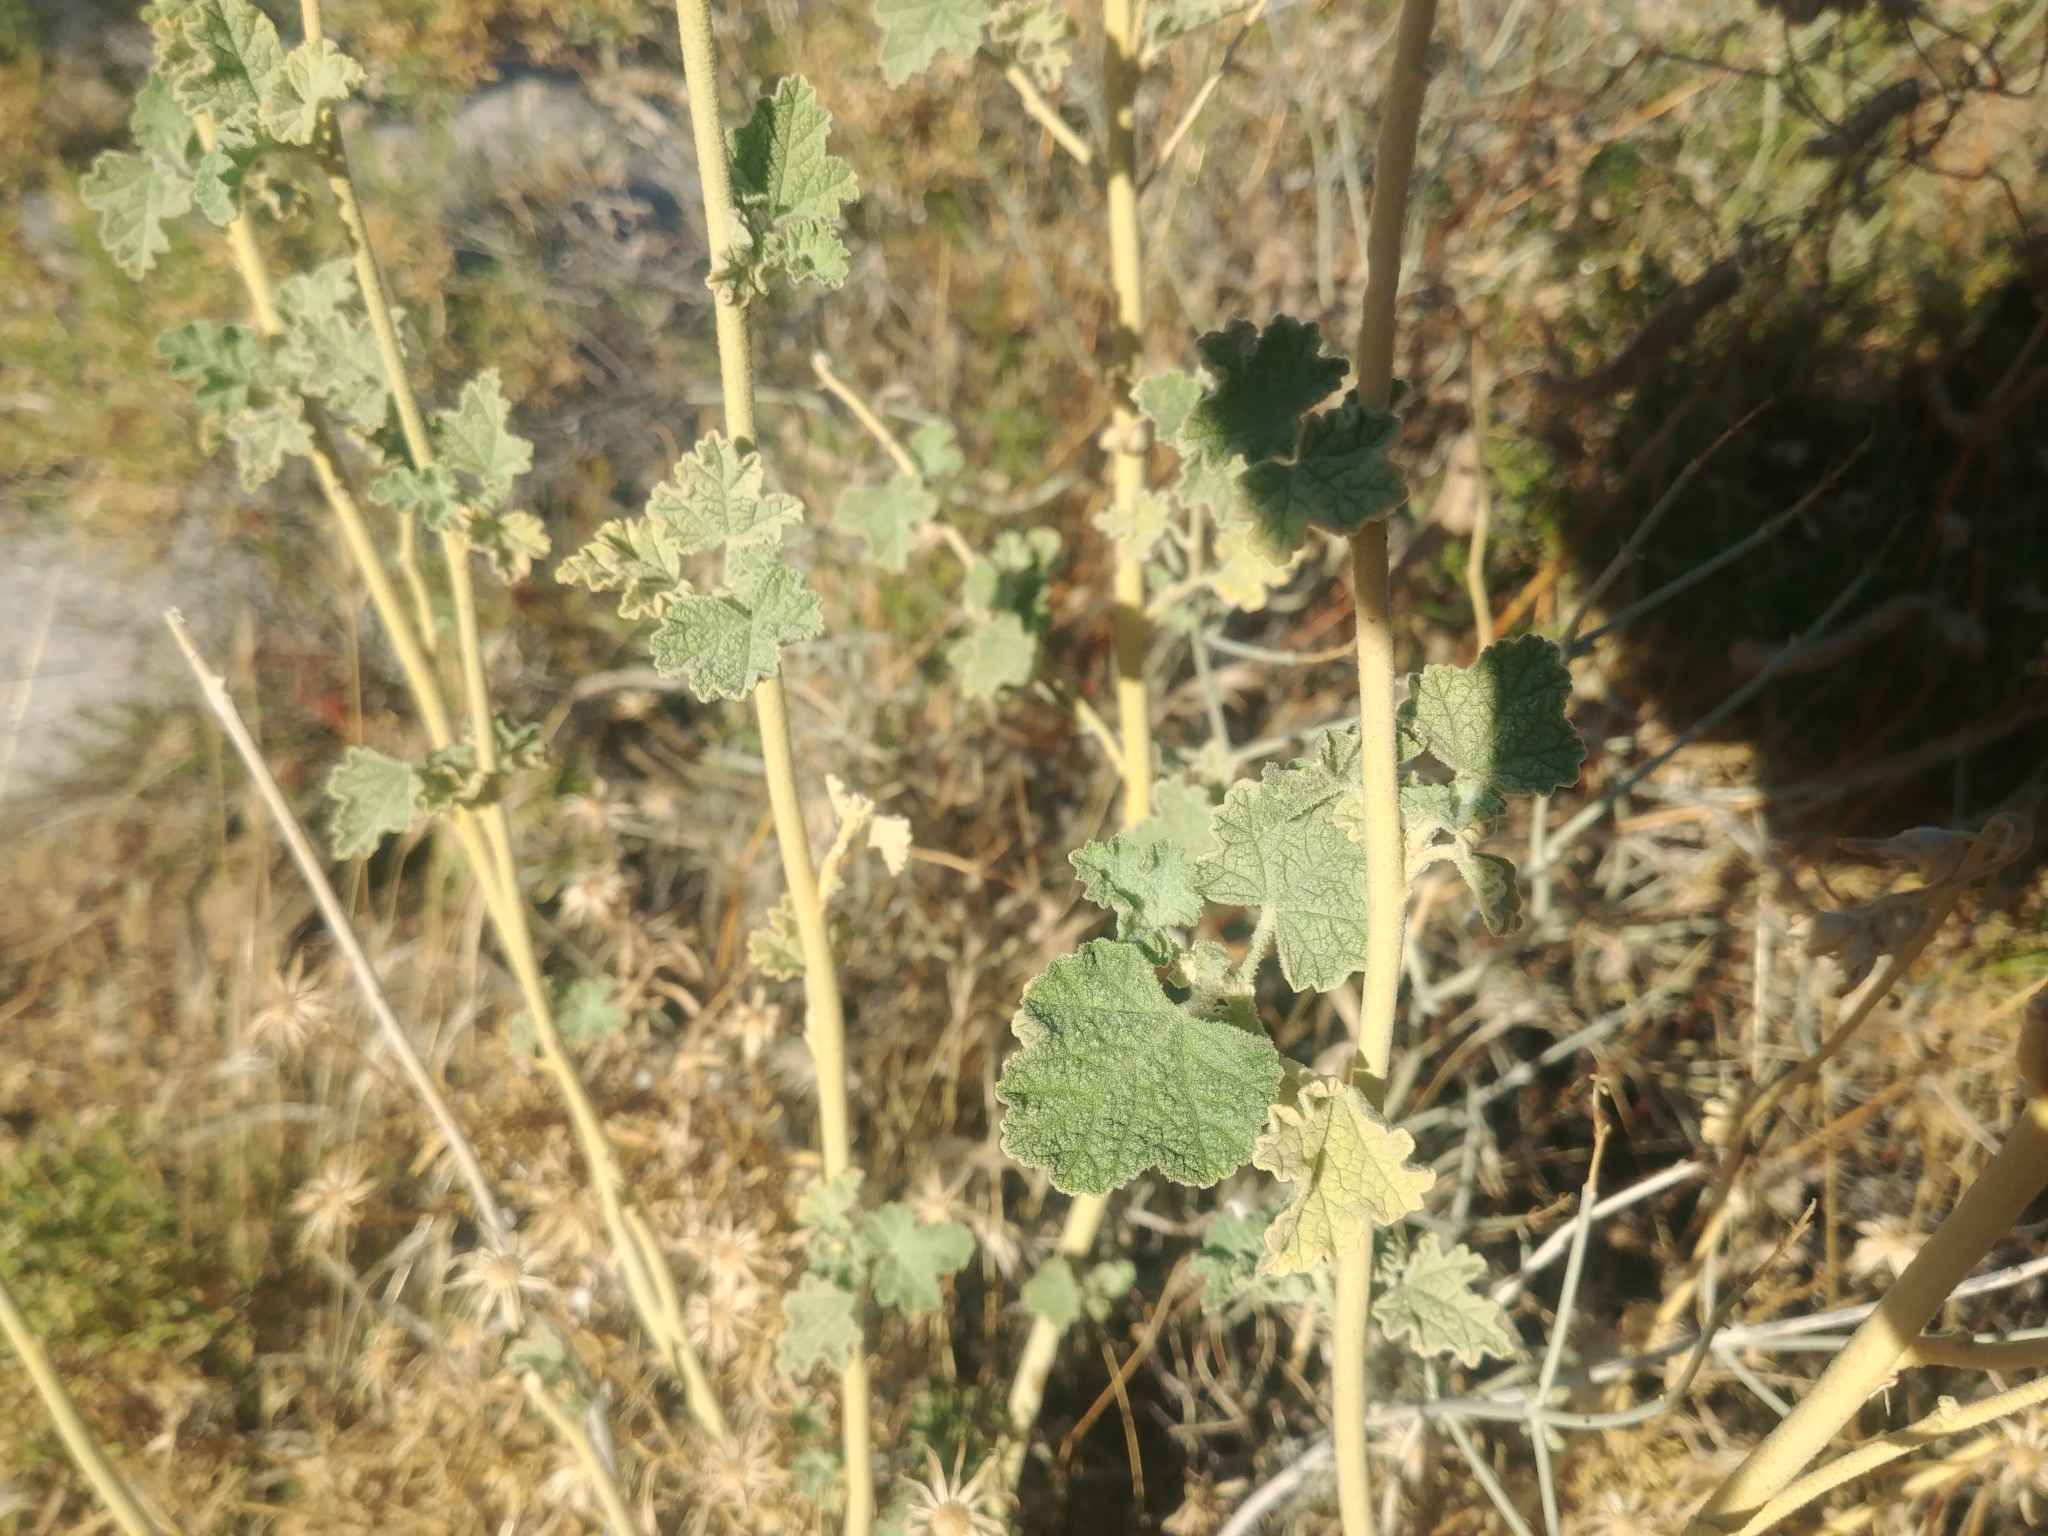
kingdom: Plantae
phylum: Tracheophyta
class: Magnoliopsida
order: Malvales
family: Malvaceae
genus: Sphaeralcea
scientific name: Sphaeralcea ambigua
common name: Apricot globe-mallow
